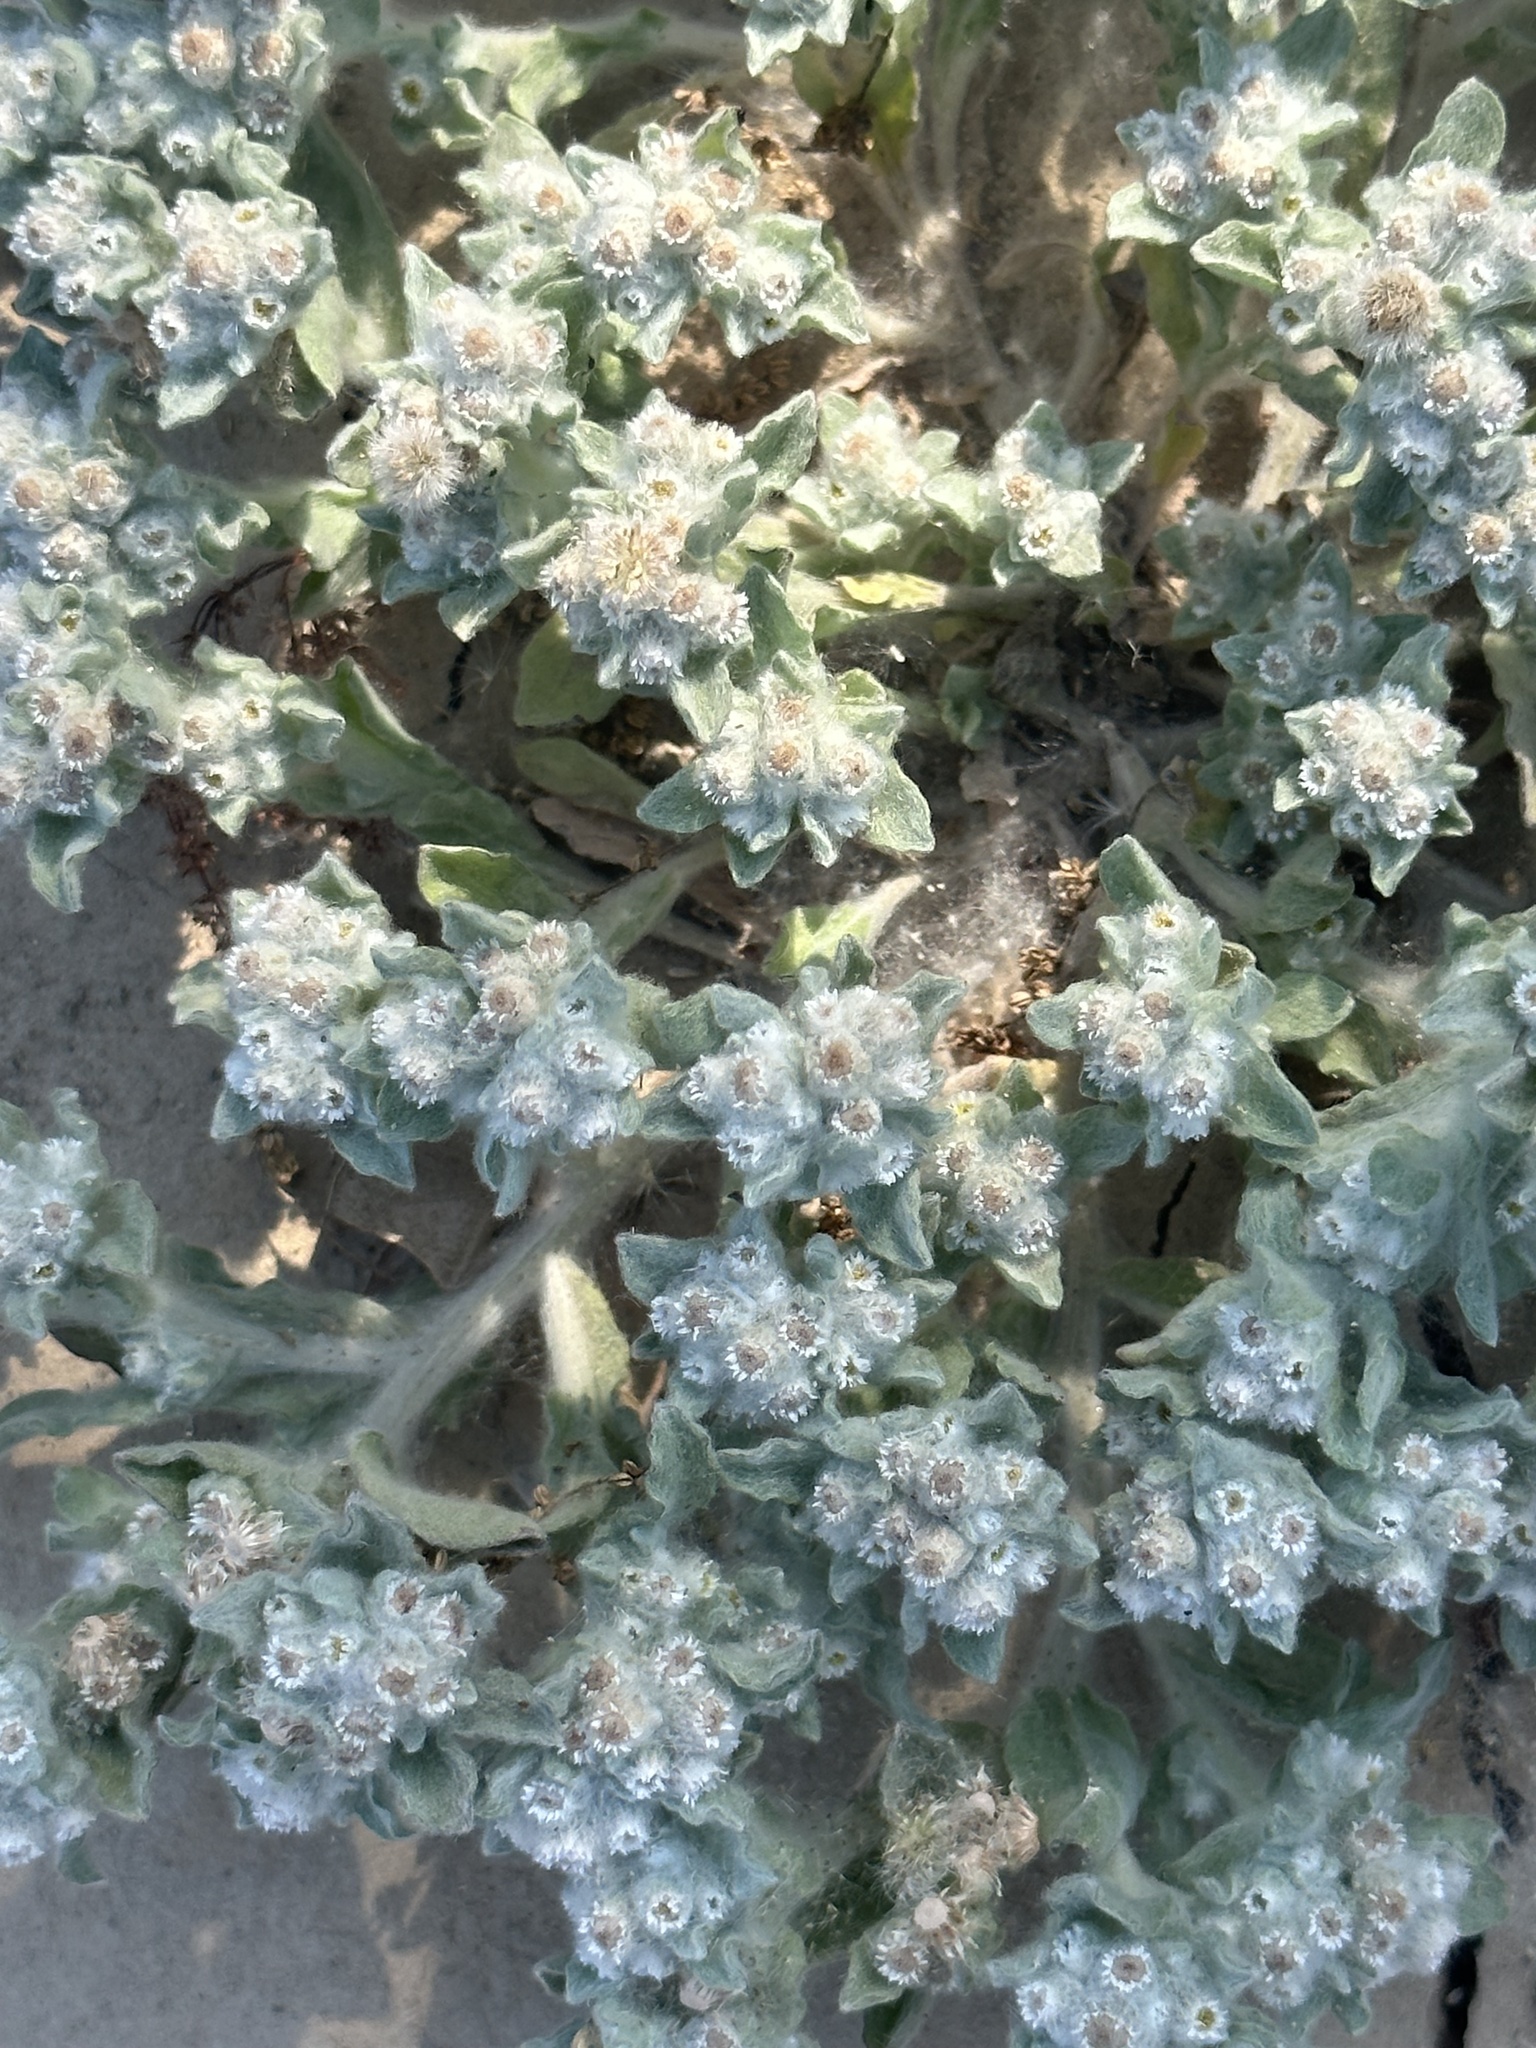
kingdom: Plantae
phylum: Tracheophyta
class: Magnoliopsida
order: Asterales
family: Asteraceae
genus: Gnaphalium
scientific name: Gnaphalium palustre
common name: Western marsh cudweed
